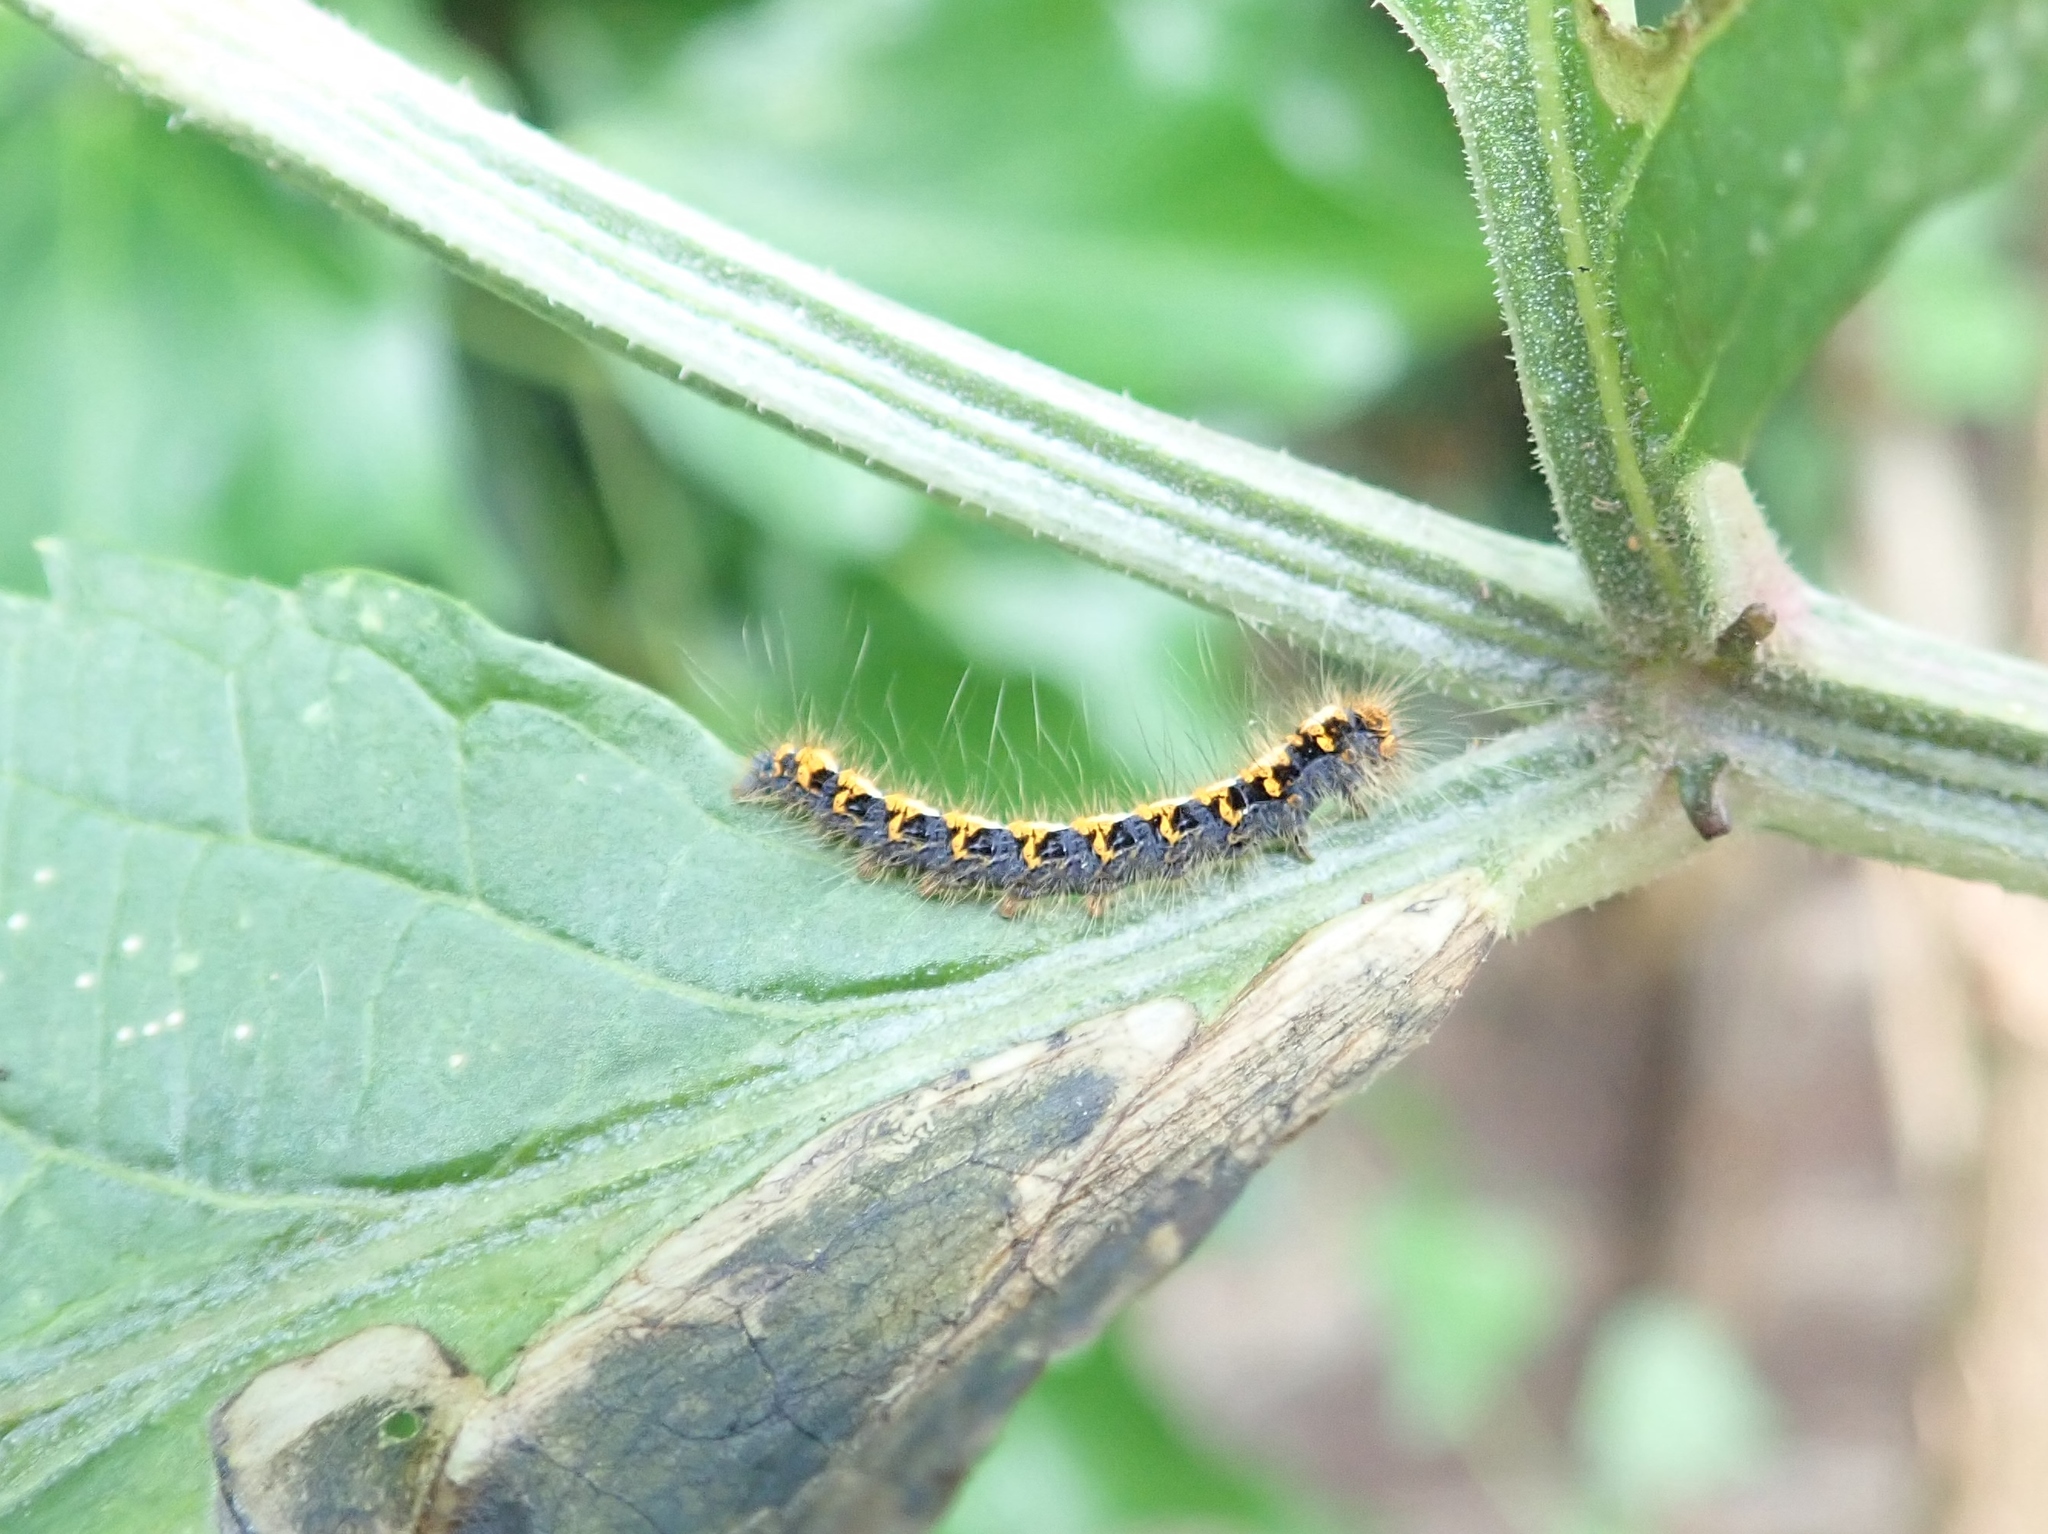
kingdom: Animalia
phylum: Arthropoda
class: Insecta
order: Lepidoptera
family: Lasiocampidae
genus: Lasiocampa
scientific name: Lasiocampa quercus
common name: Oak eggar
